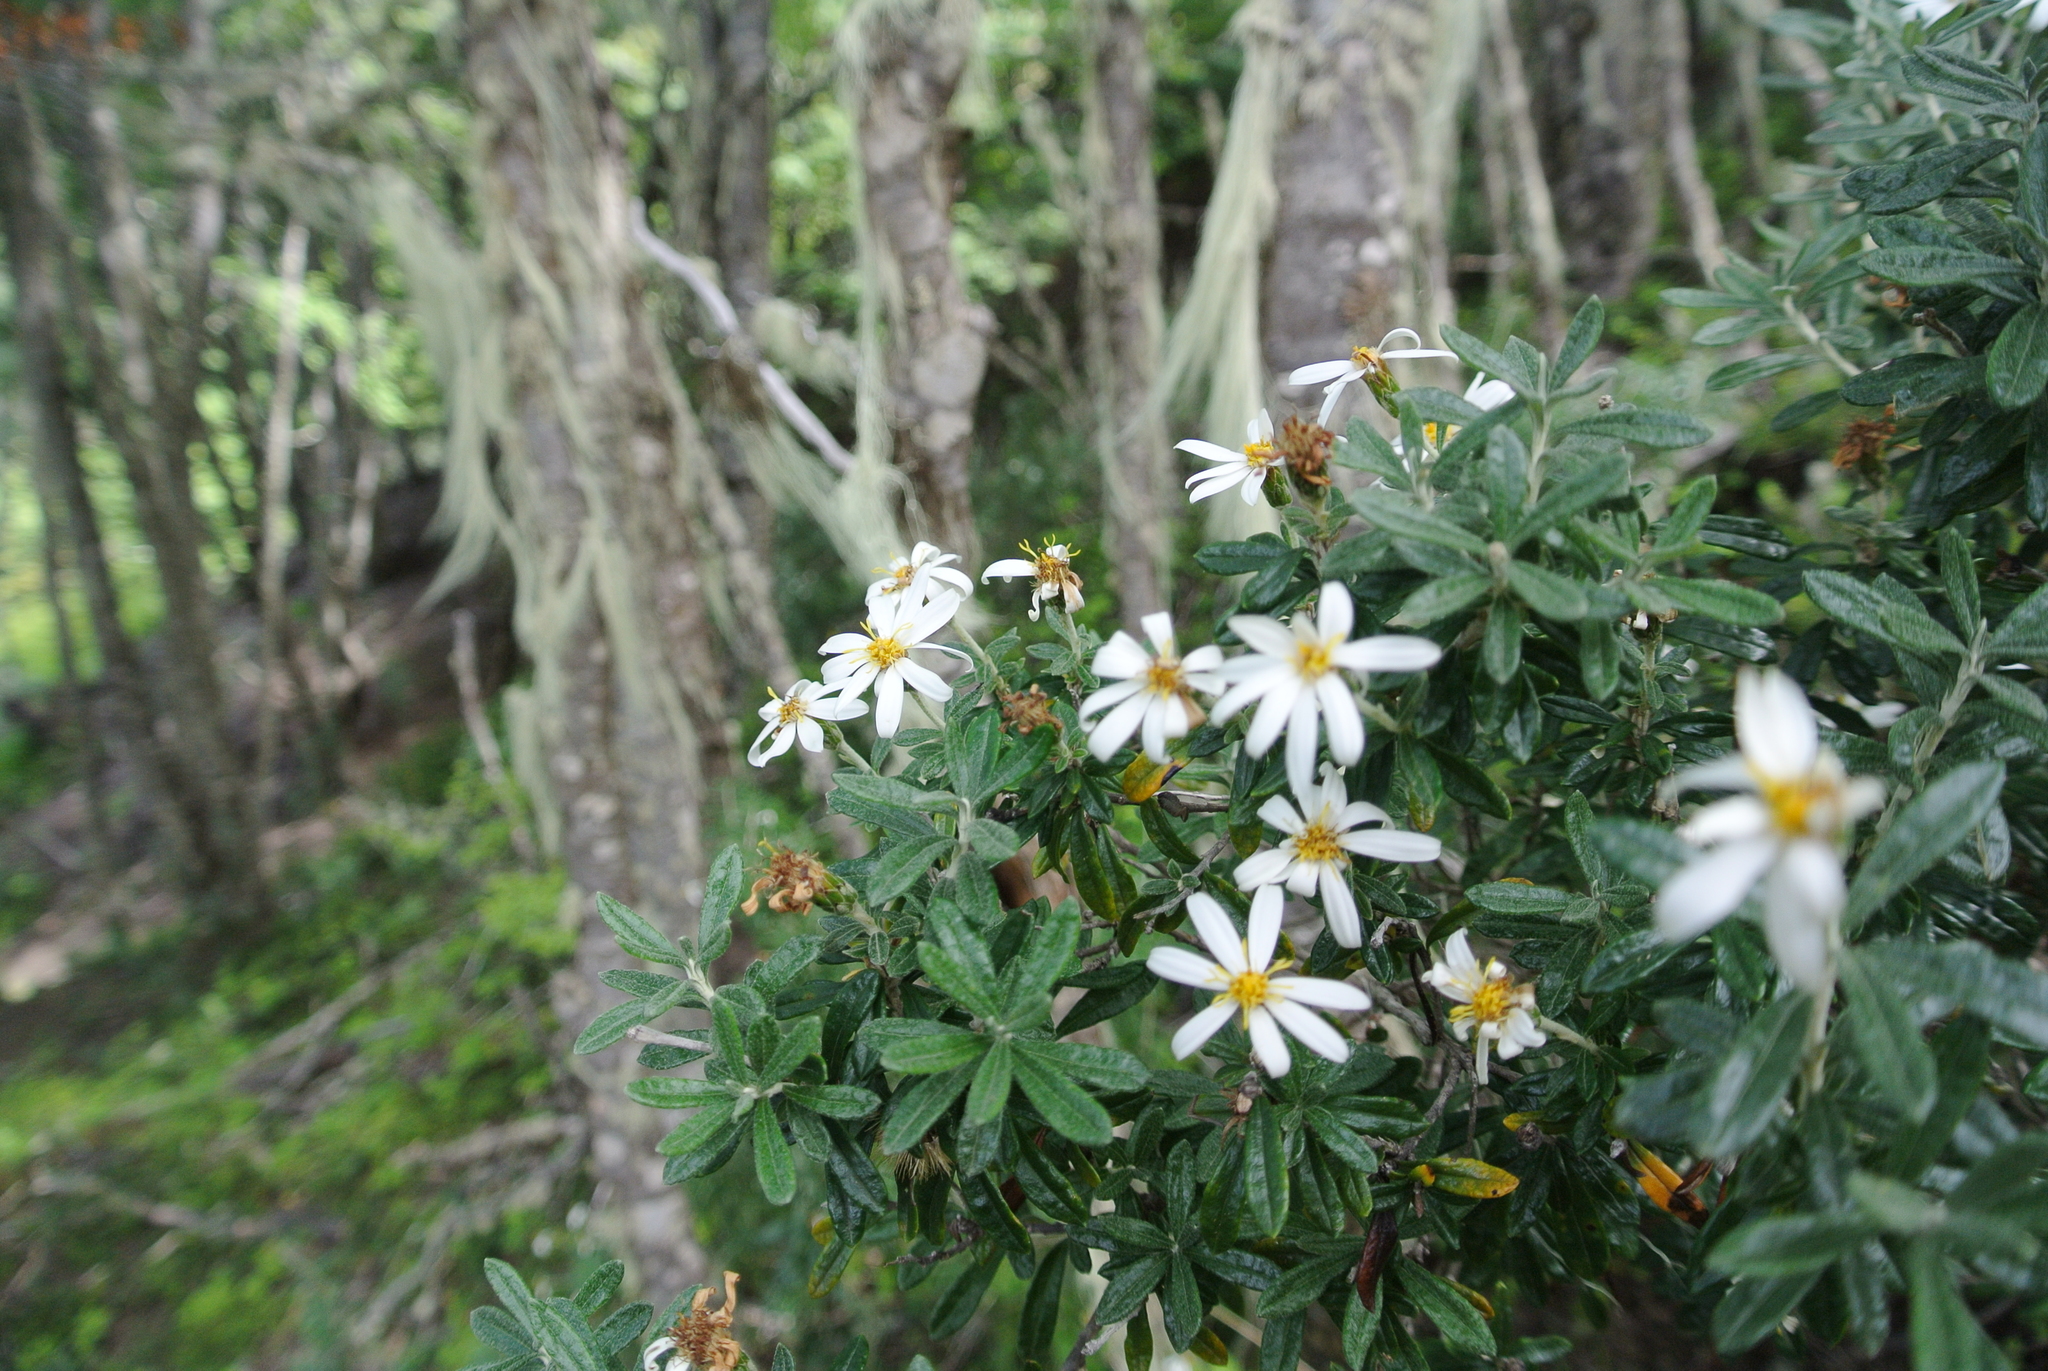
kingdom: Plantae
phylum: Tracheophyta
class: Magnoliopsida
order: Asterales
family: Asteraceae
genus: Chiliotrichum
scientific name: Chiliotrichum diffusum
